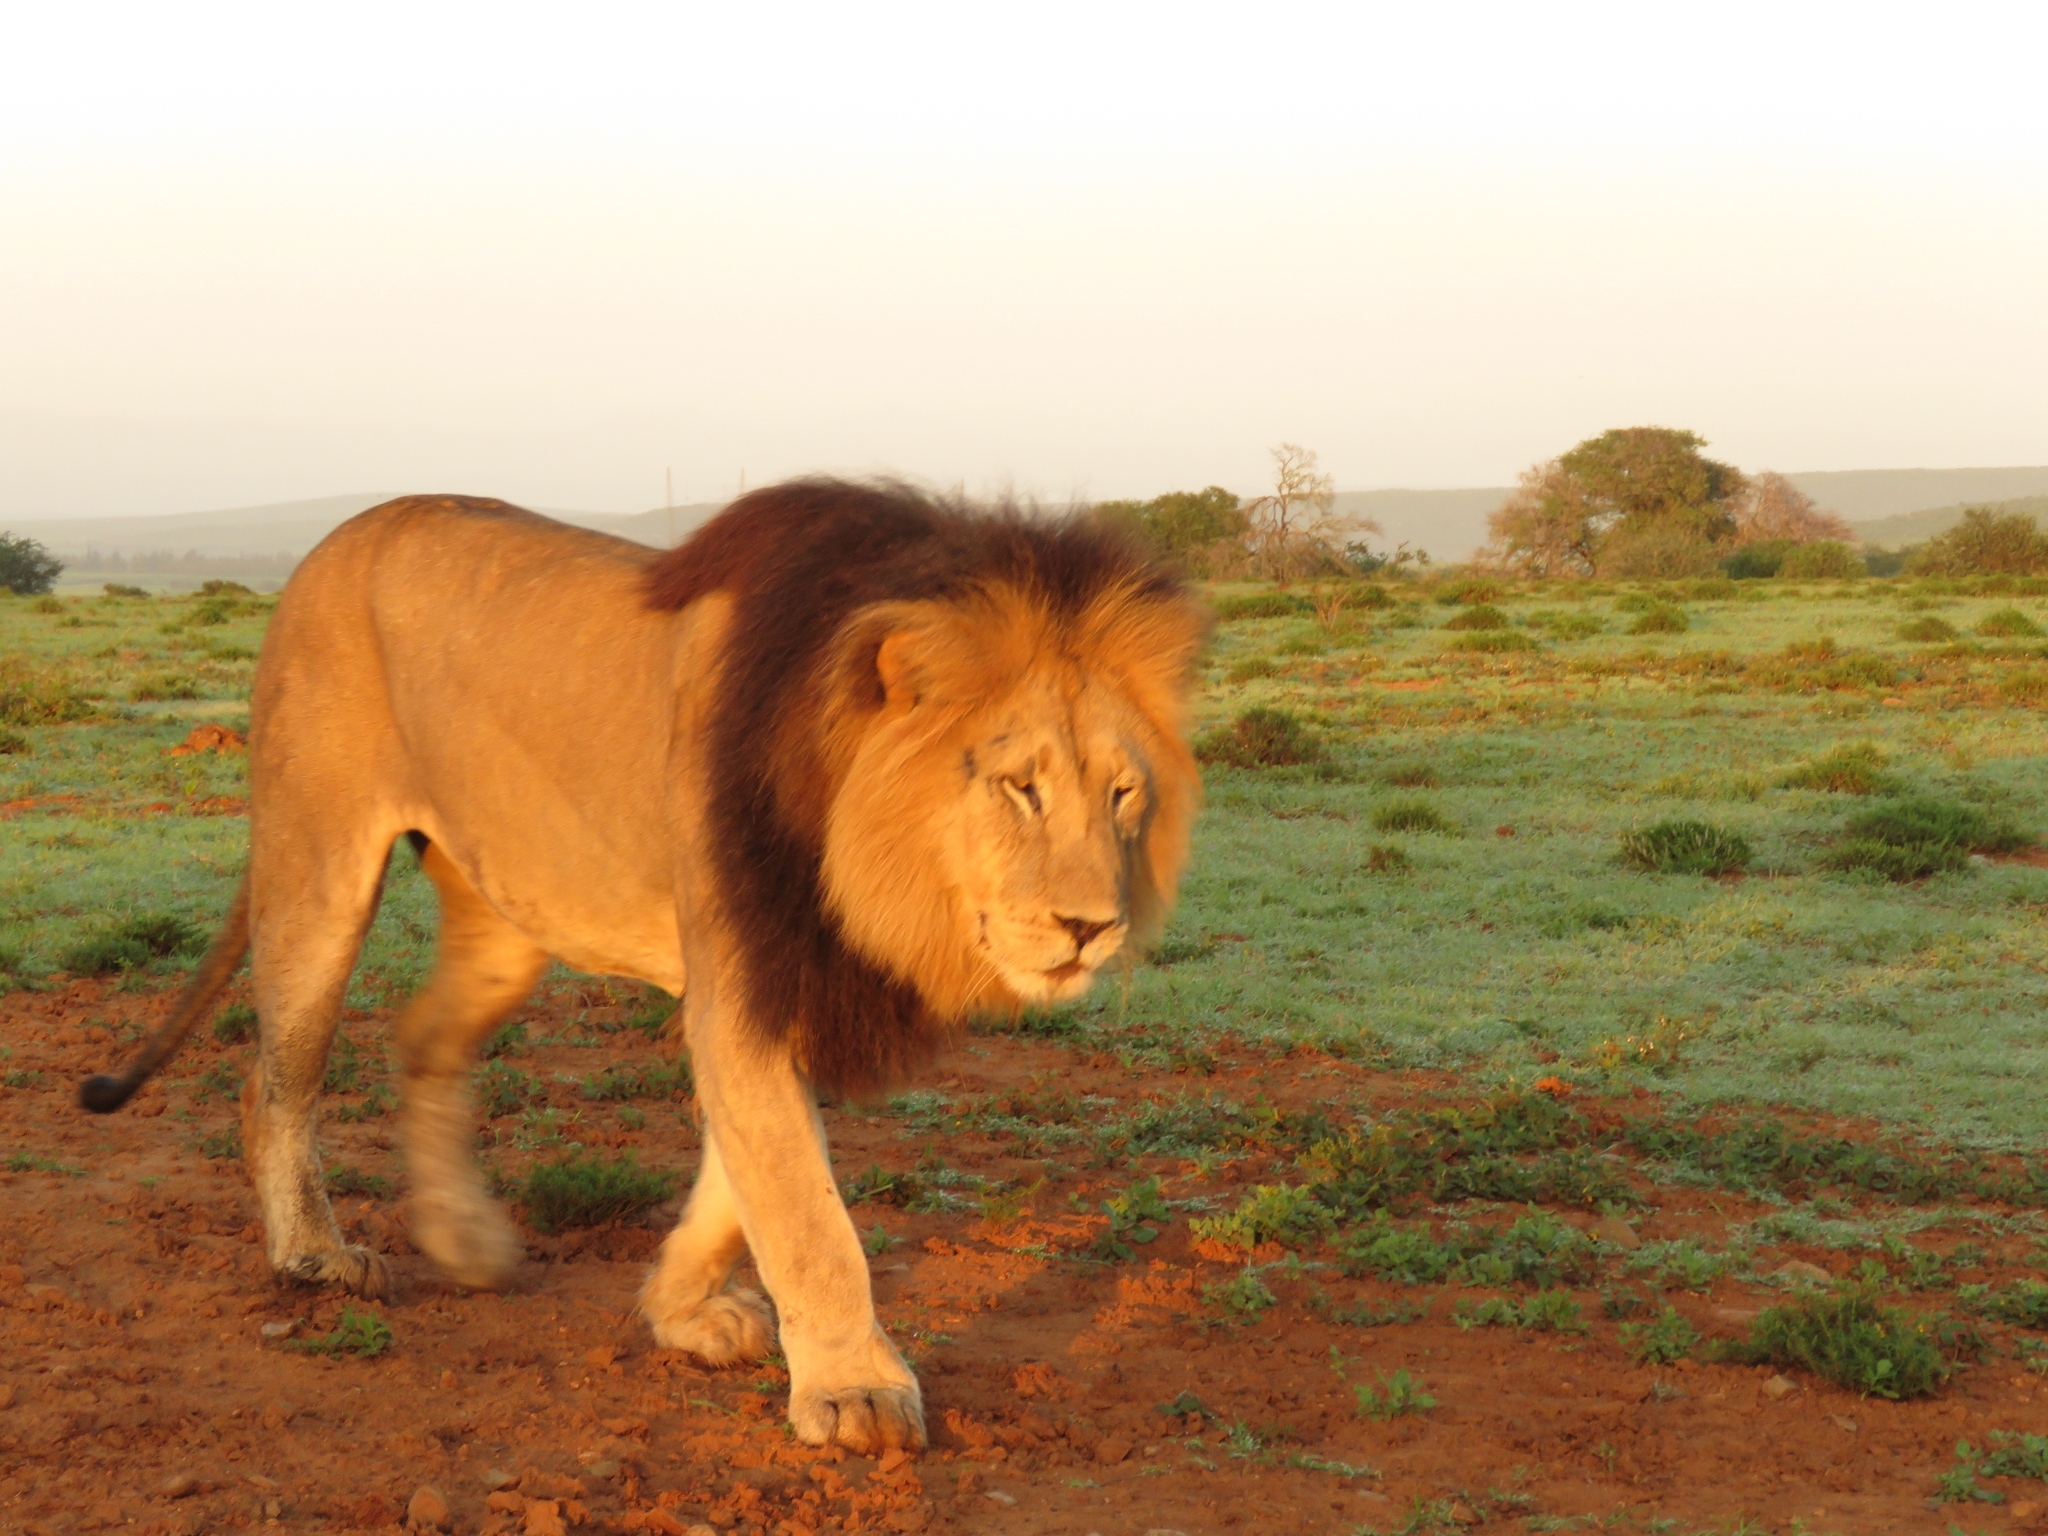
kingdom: Animalia
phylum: Chordata
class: Mammalia
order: Carnivora
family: Felidae
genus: Panthera
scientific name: Panthera leo
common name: Lion
